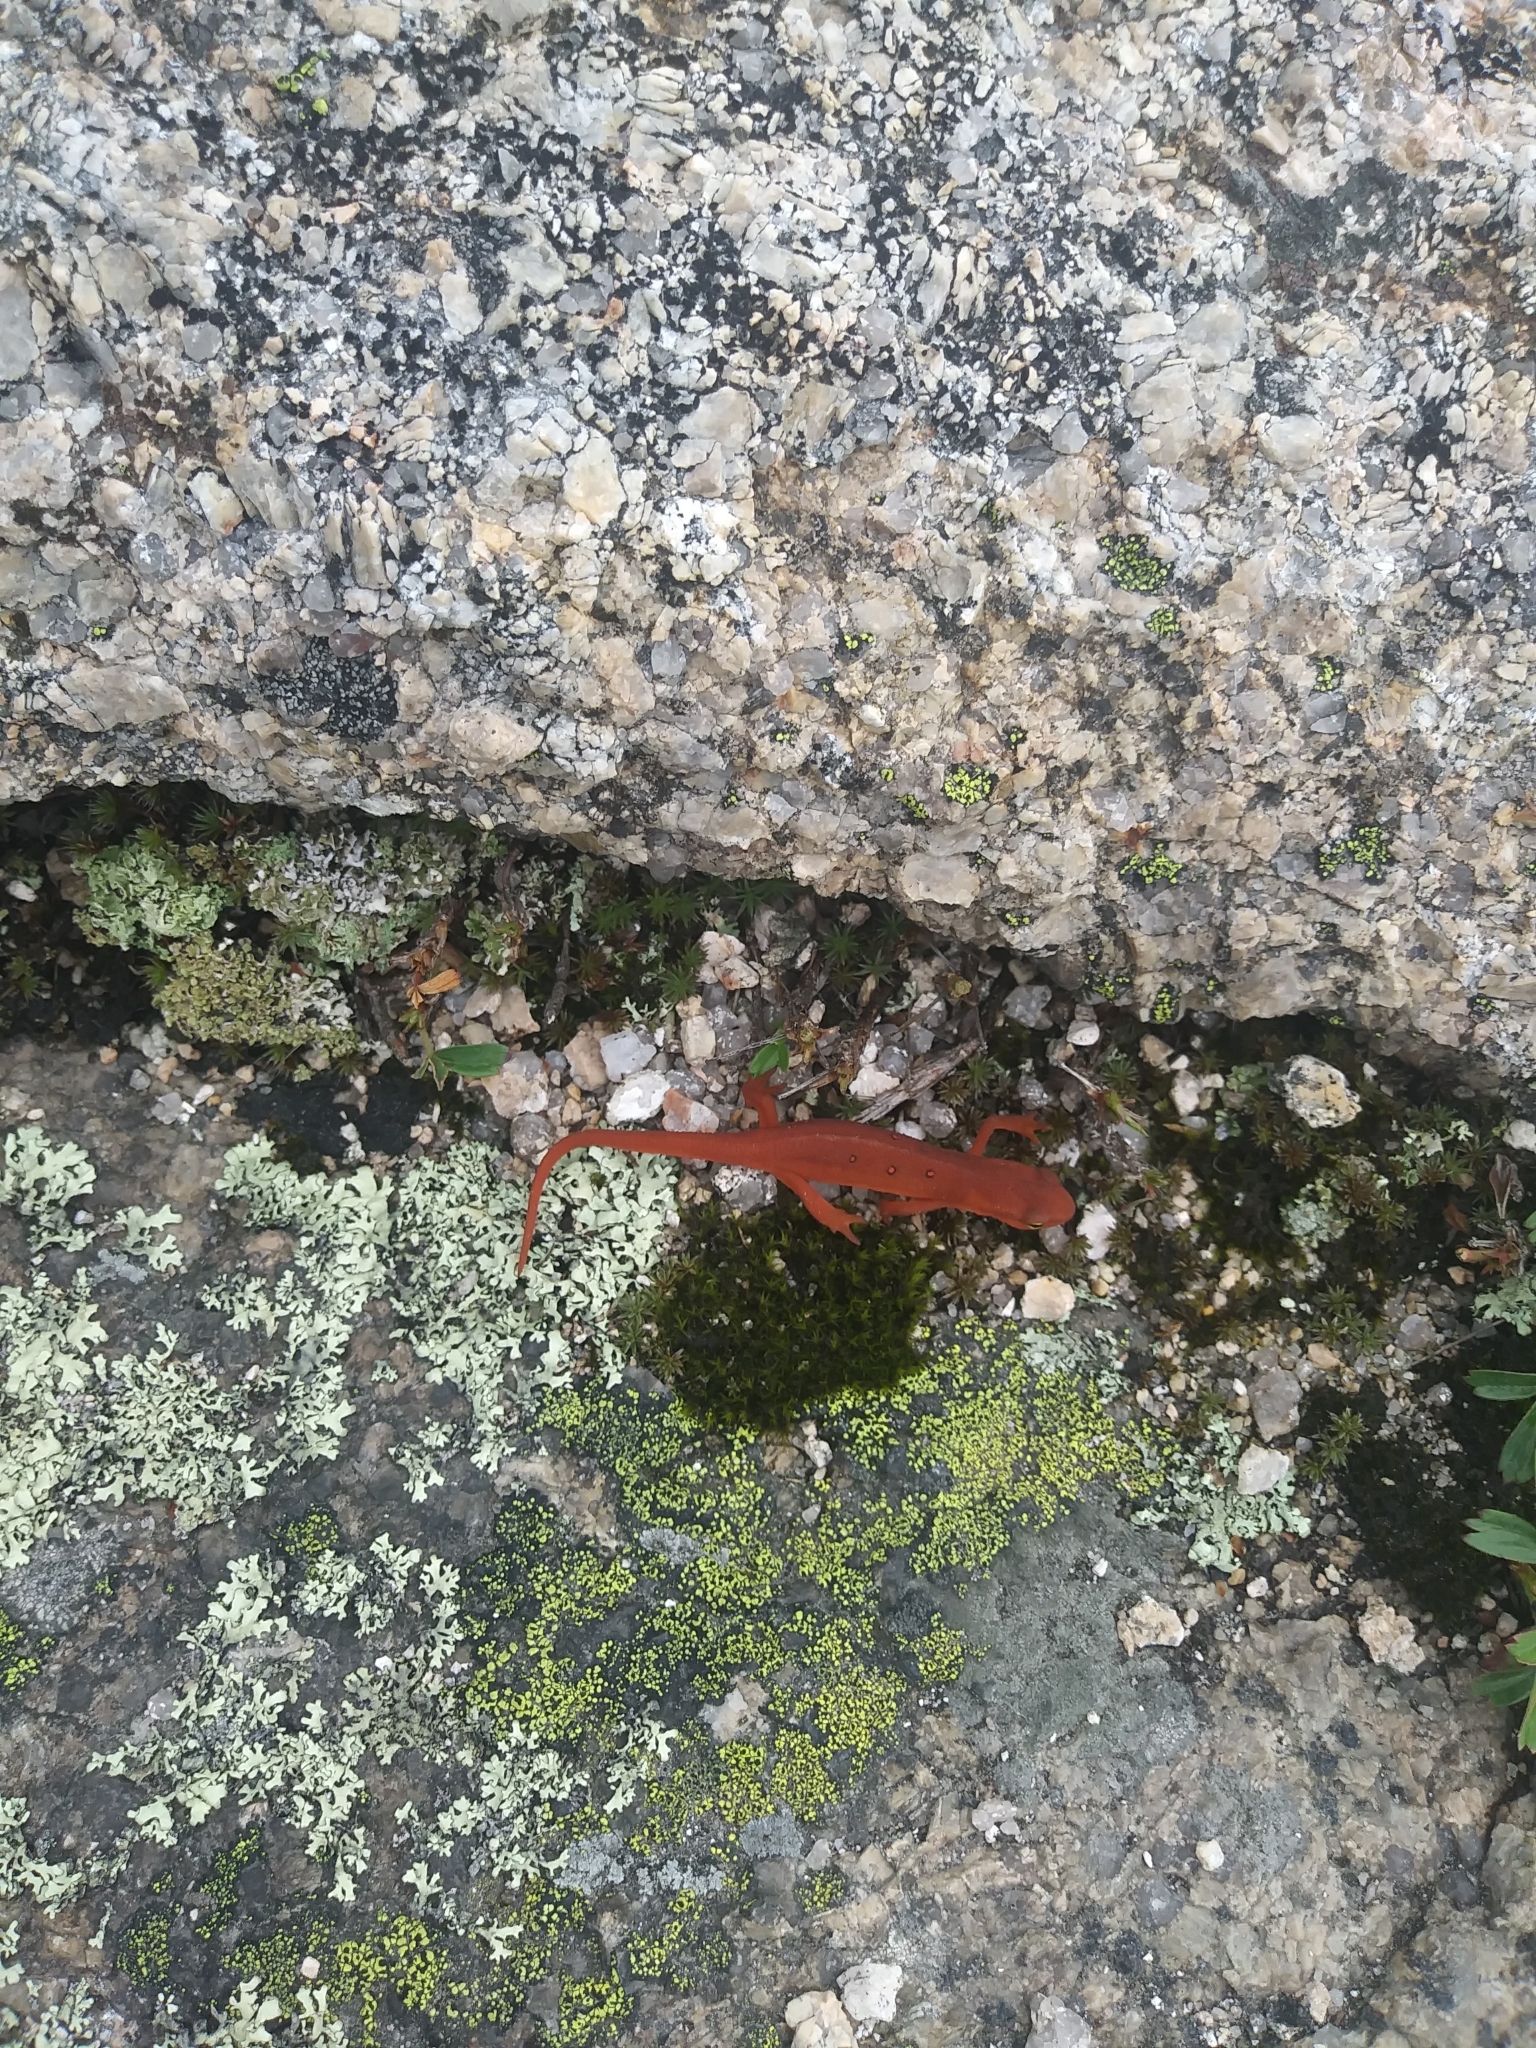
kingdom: Animalia
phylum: Chordata
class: Amphibia
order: Caudata
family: Salamandridae
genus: Notophthalmus
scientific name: Notophthalmus viridescens
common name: Eastern newt
